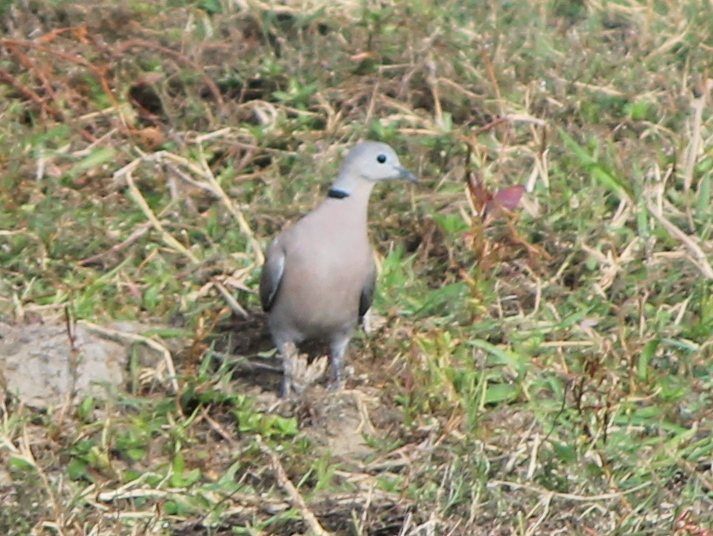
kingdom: Animalia
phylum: Chordata
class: Aves
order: Columbiformes
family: Columbidae
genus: Streptopelia
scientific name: Streptopelia tranquebarica
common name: Red turtle dove
